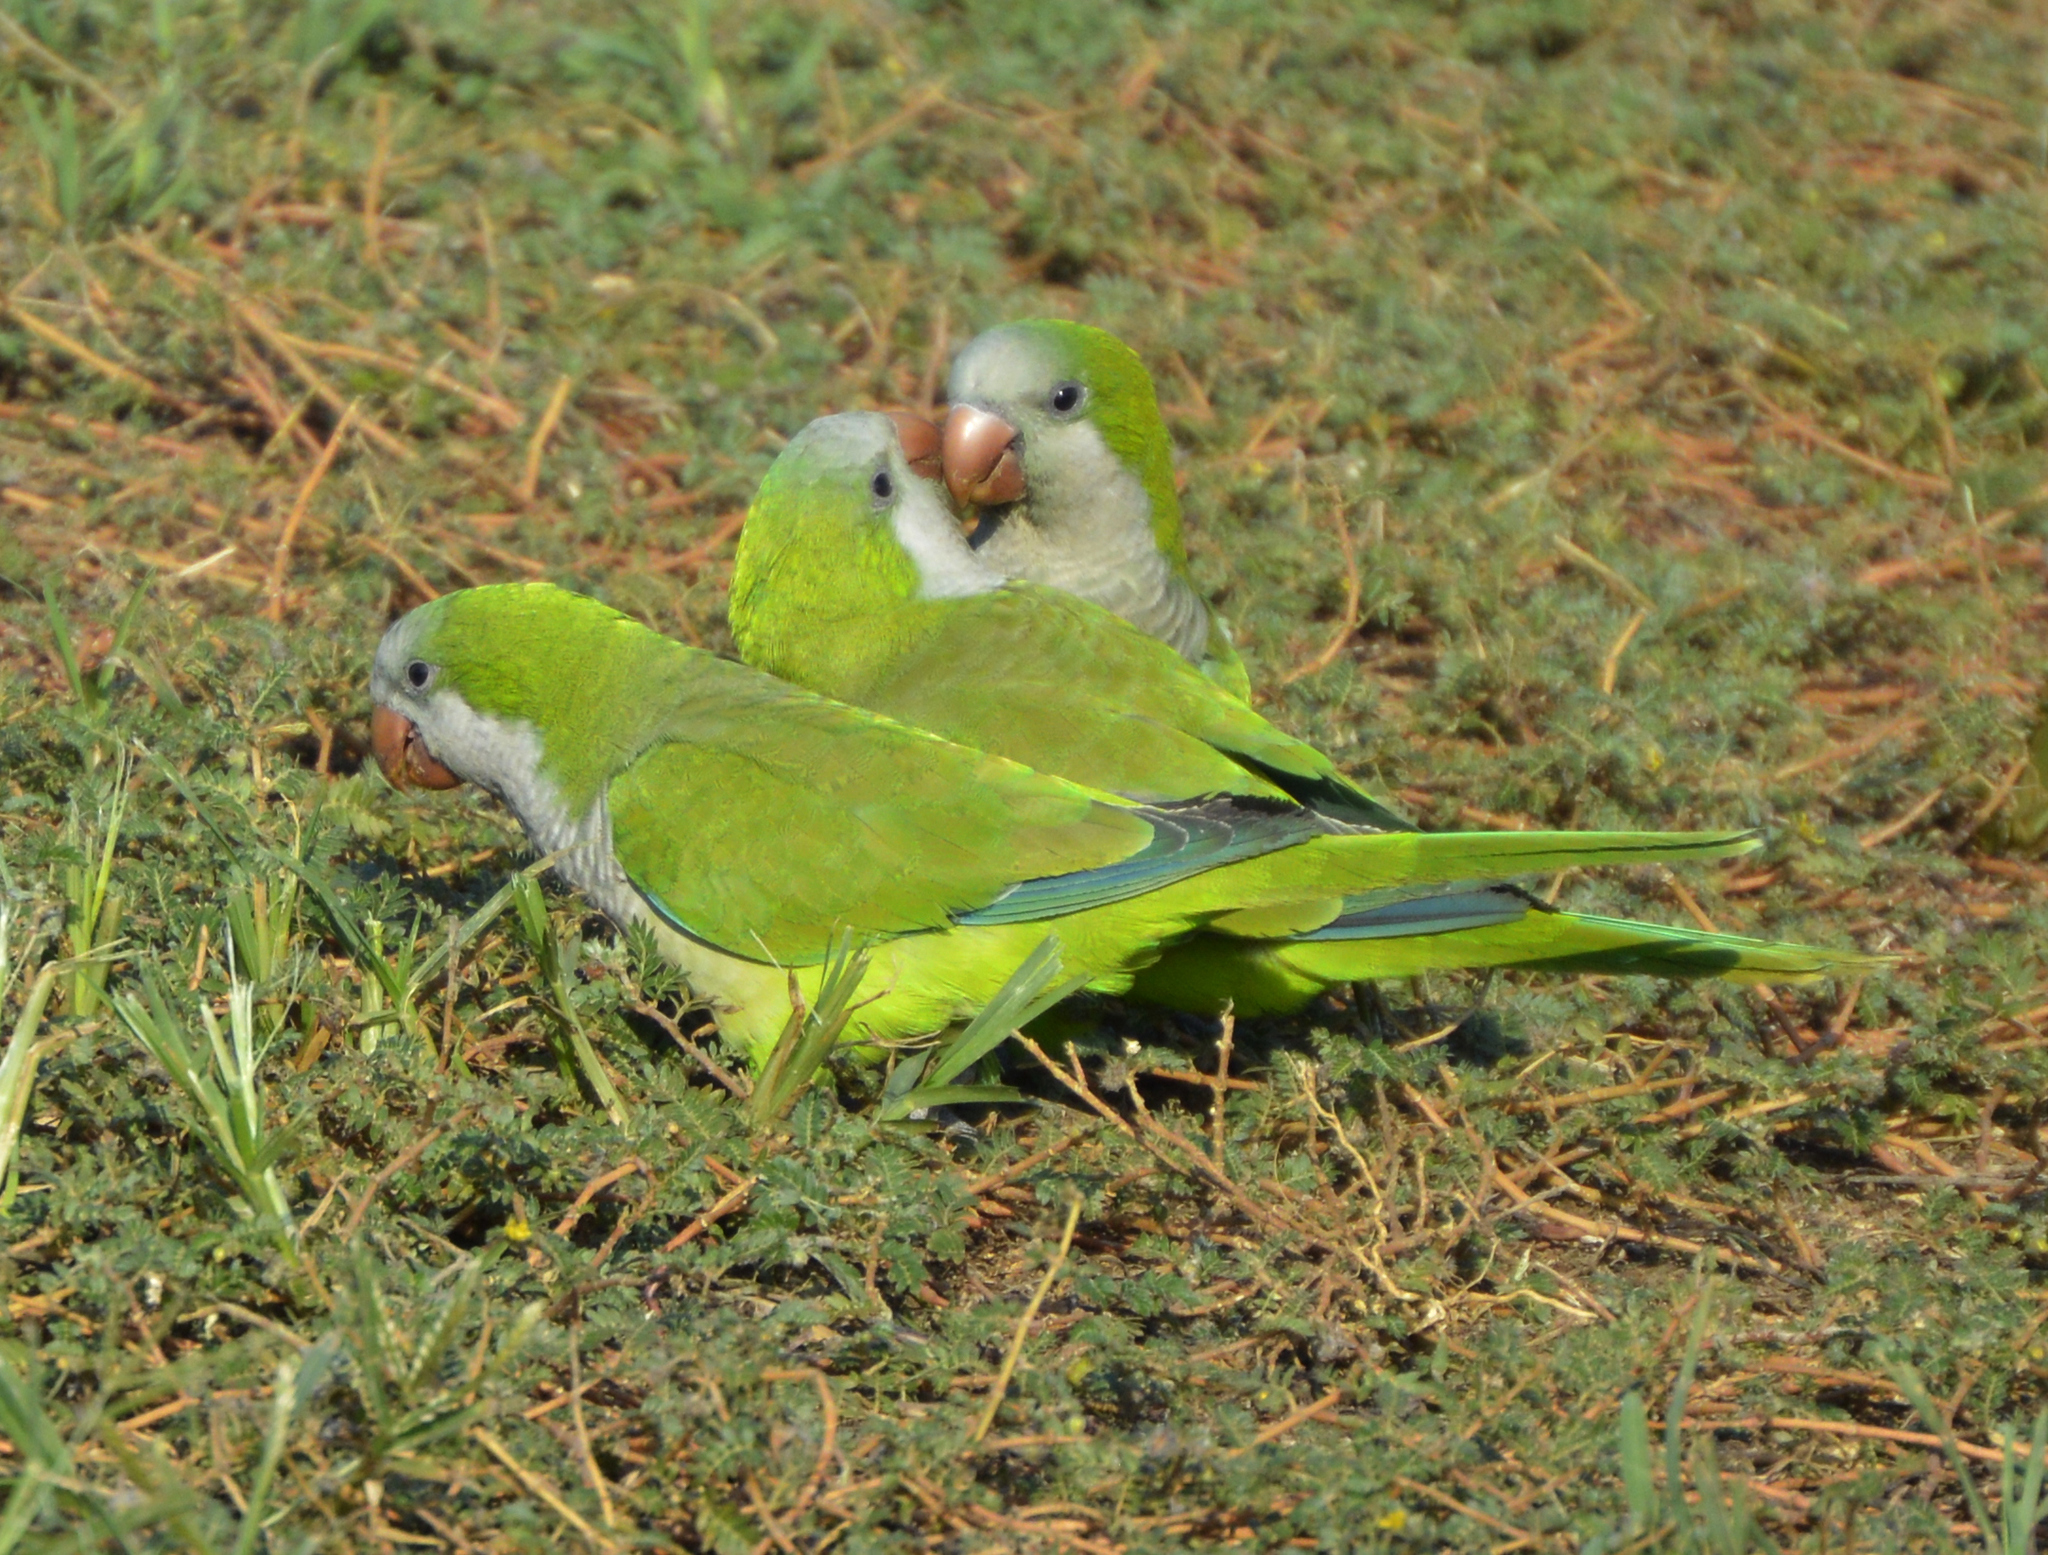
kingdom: Animalia
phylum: Chordata
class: Aves
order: Psittaciformes
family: Psittacidae
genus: Myiopsitta
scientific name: Myiopsitta monachus
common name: Monk parakeet
